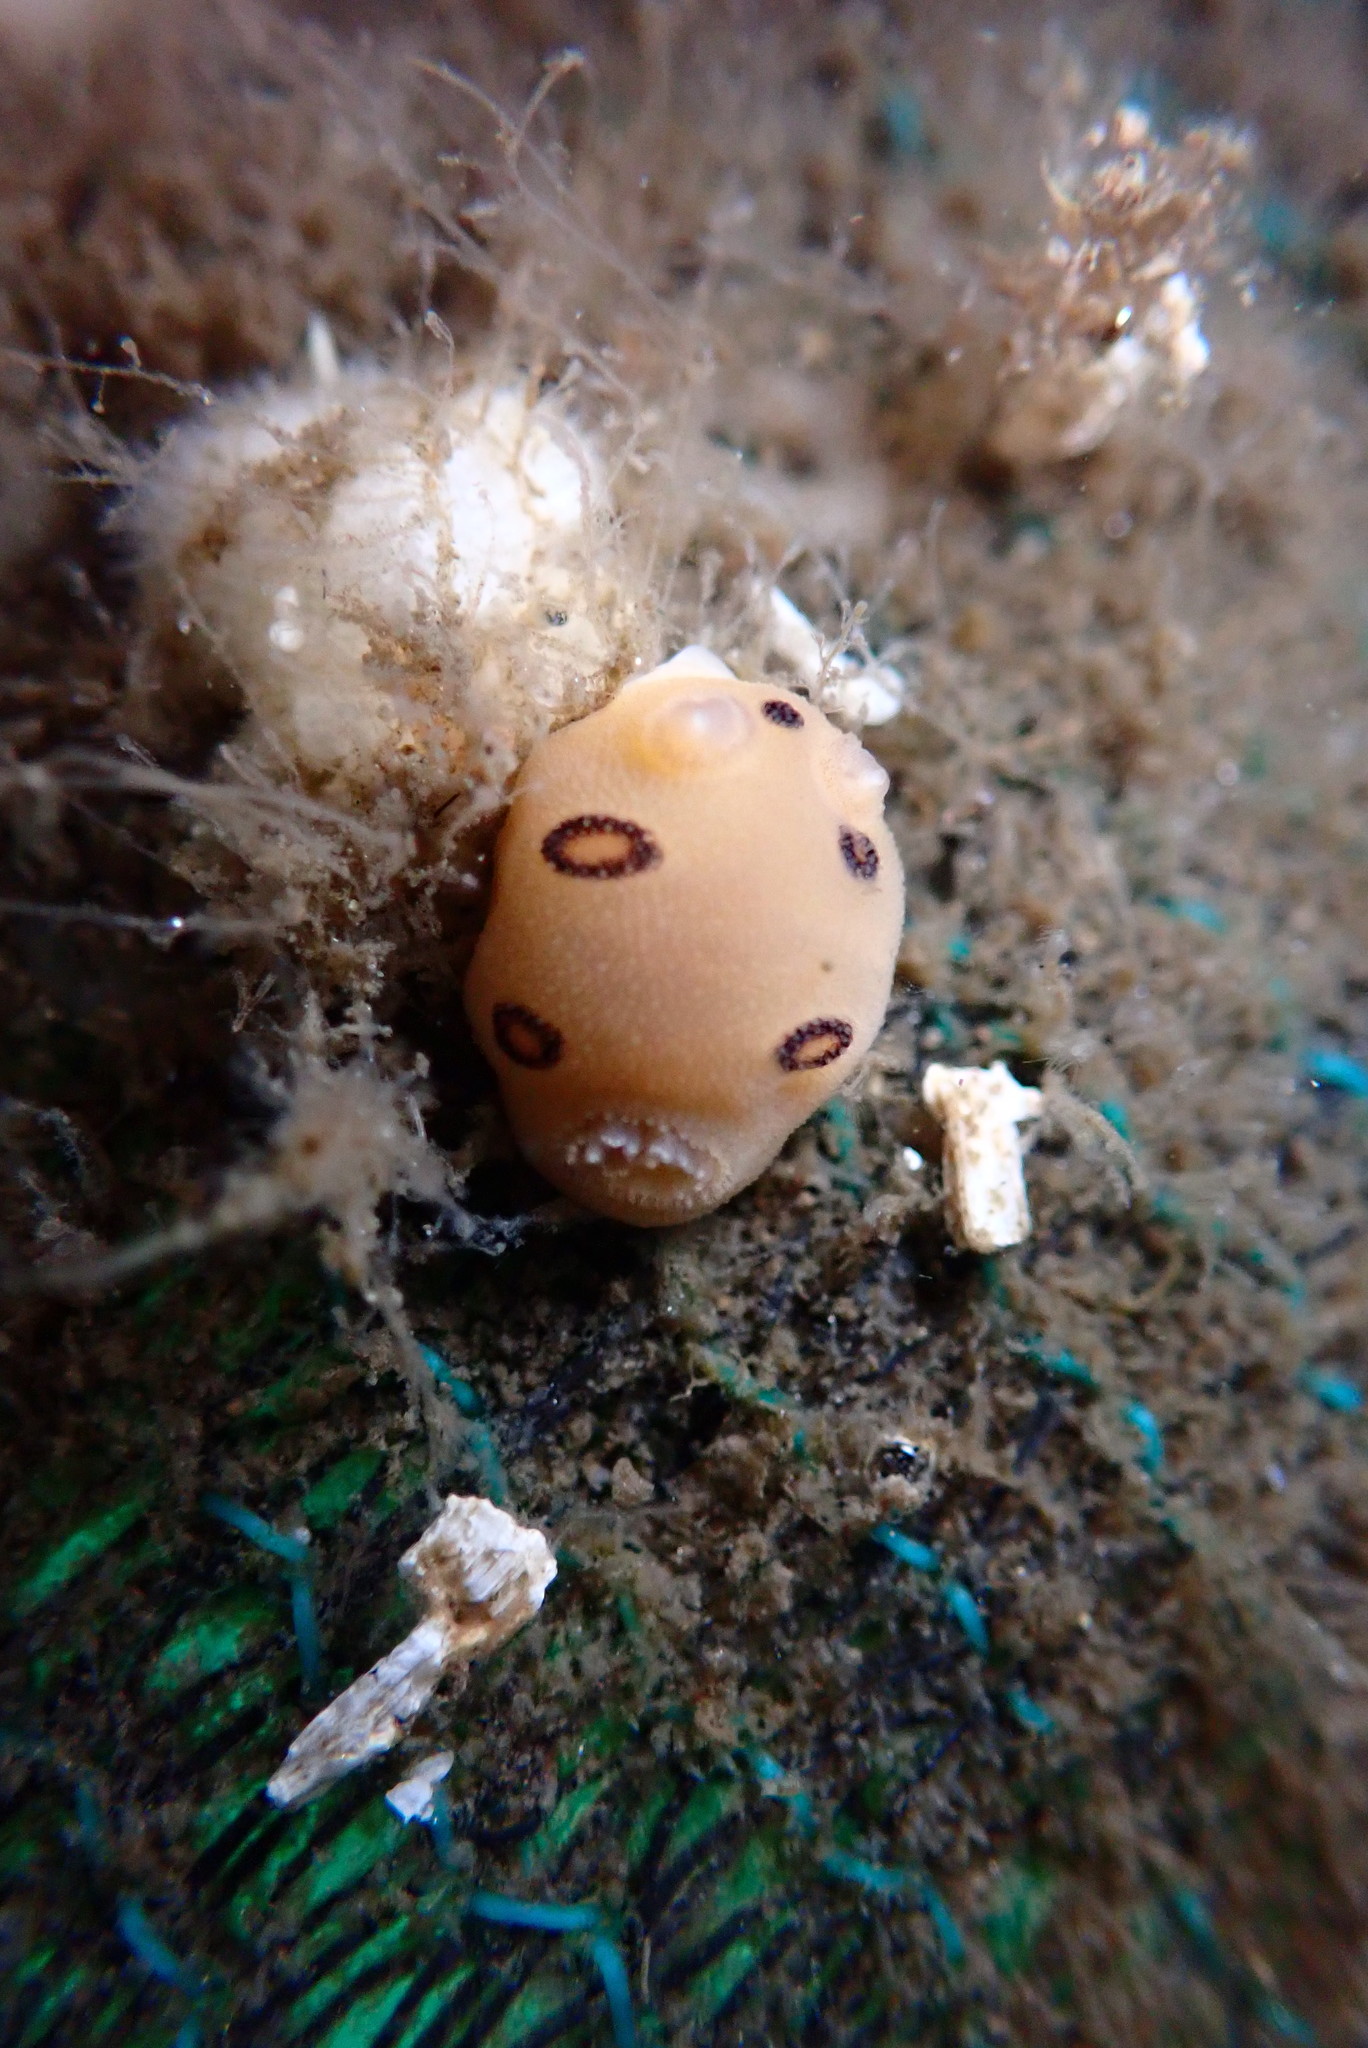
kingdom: Animalia
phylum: Mollusca
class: Gastropoda
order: Nudibranchia
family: Discodorididae
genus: Diaulula
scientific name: Diaulula sandiegensis
